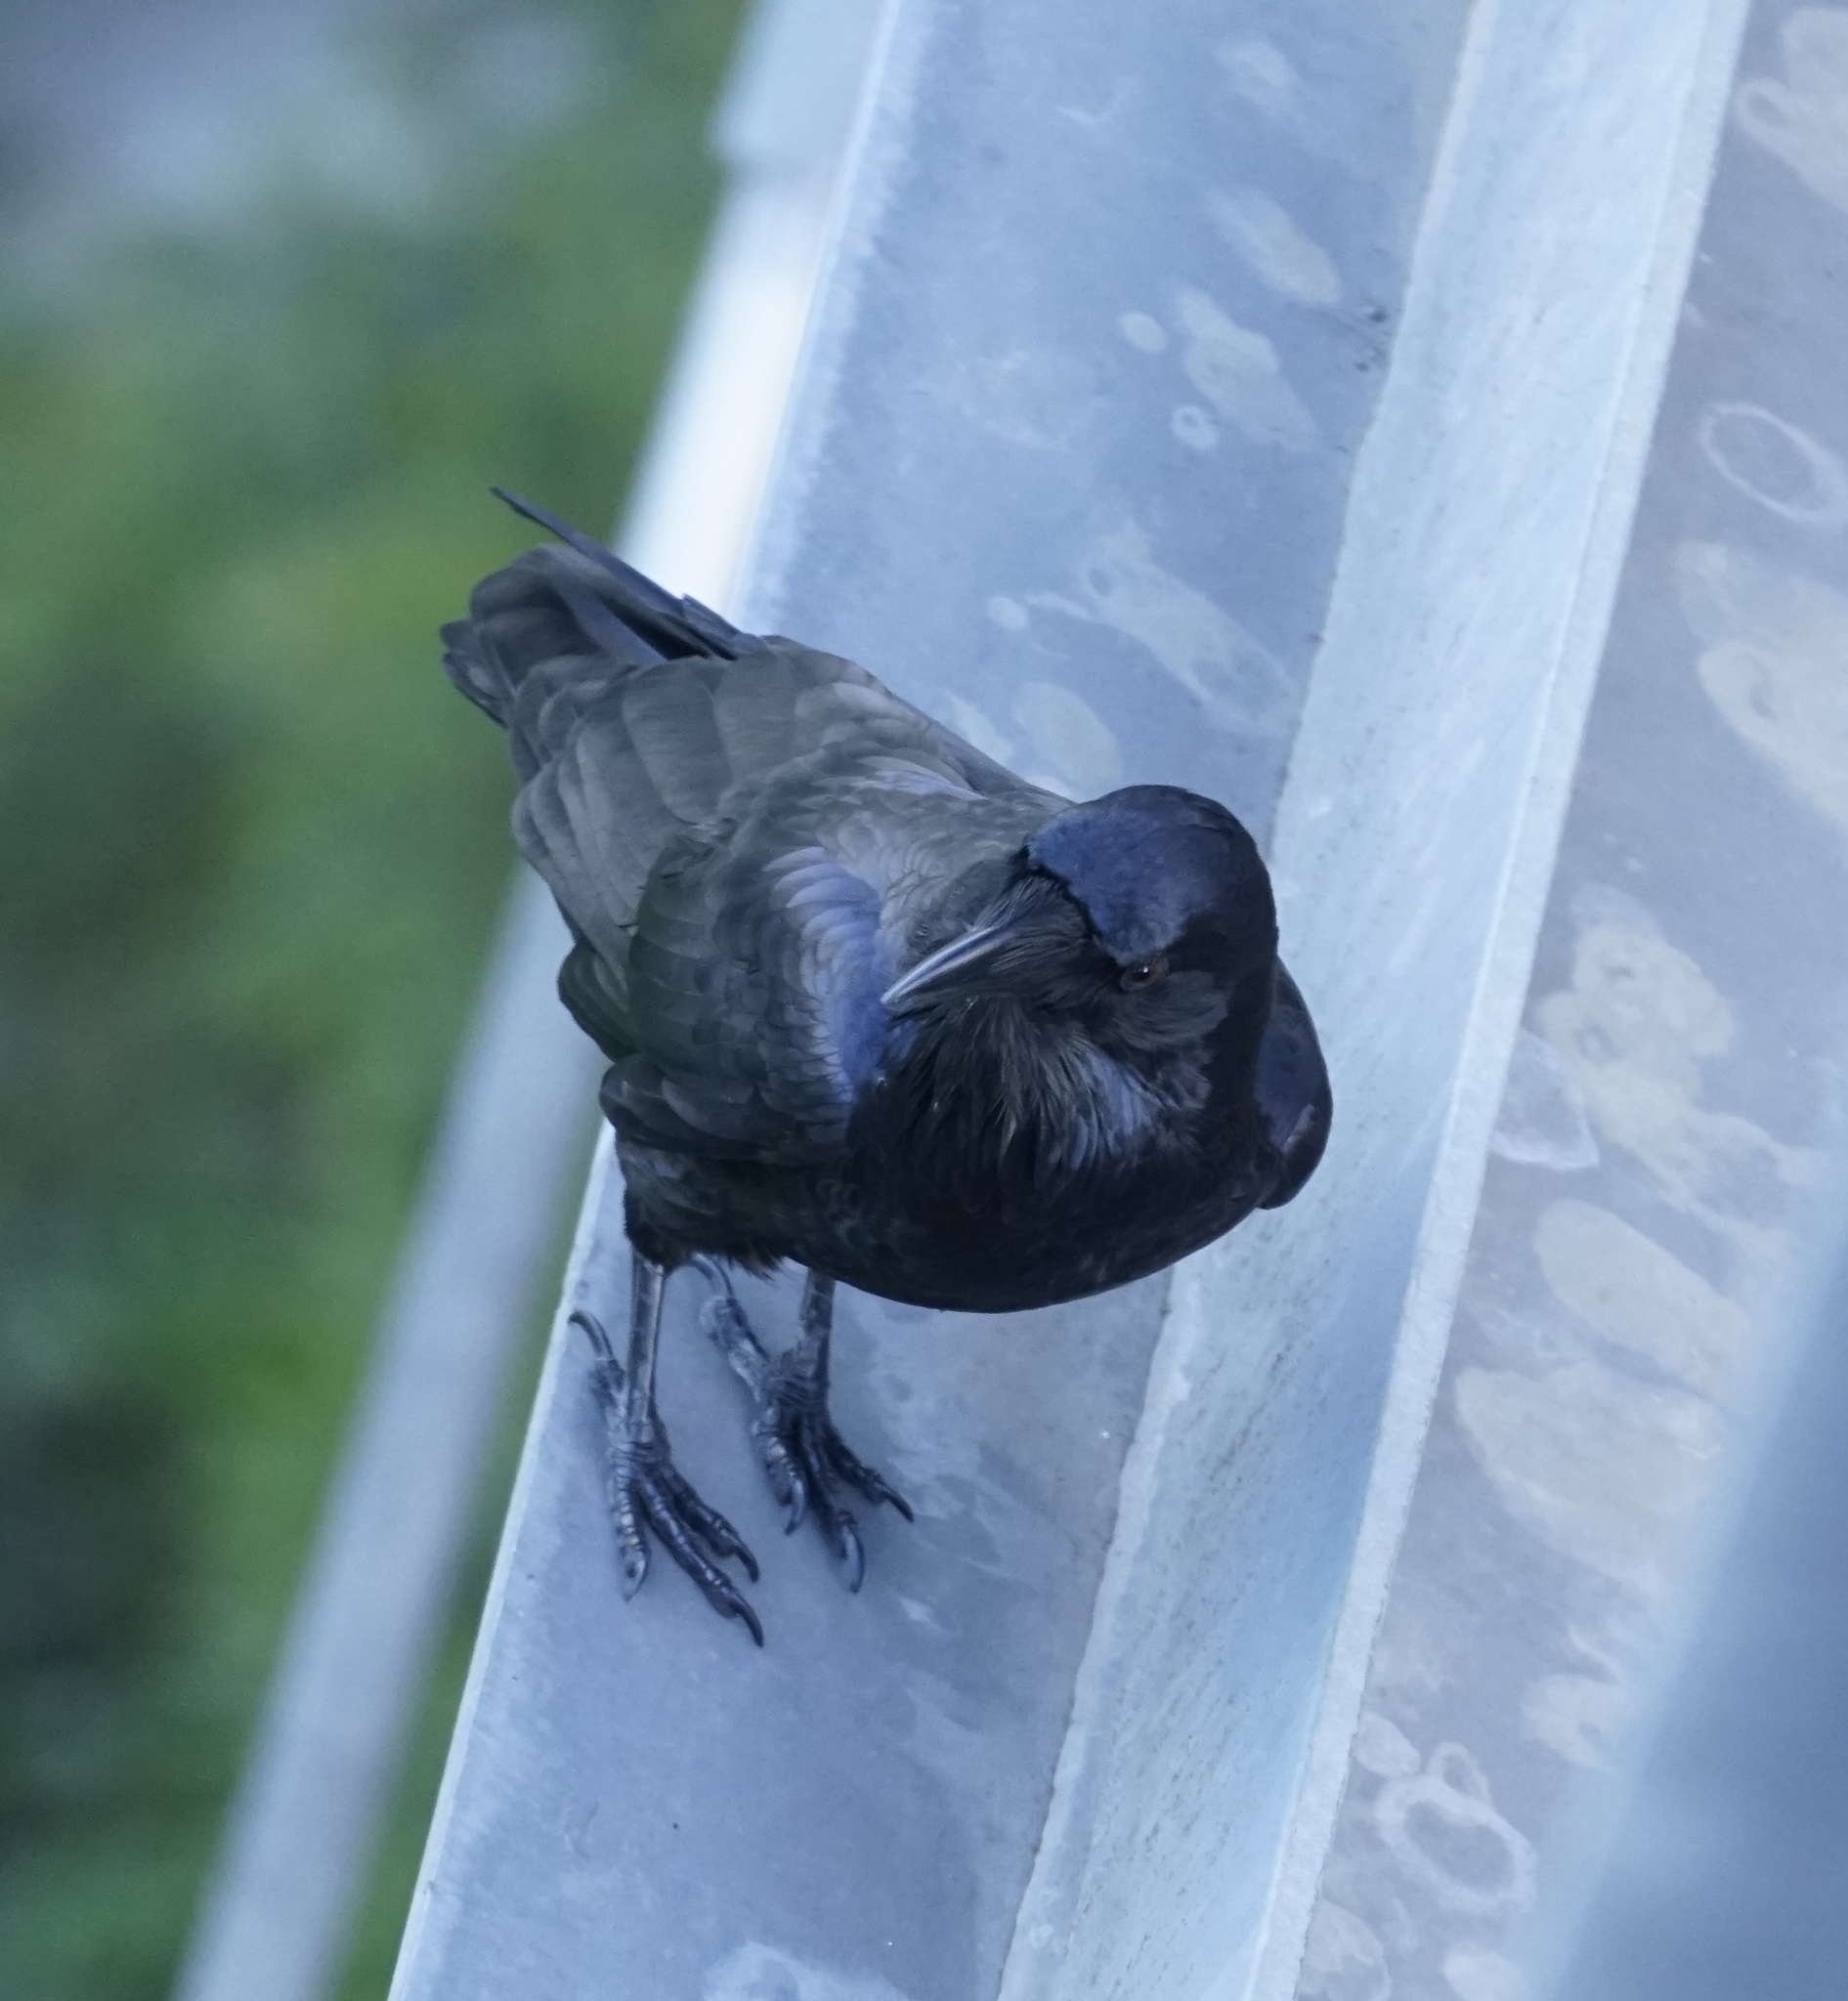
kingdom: Animalia
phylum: Chordata
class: Aves
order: Passeriformes
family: Corvidae
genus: Corvus
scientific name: Corvus coronoides
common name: Australian raven
